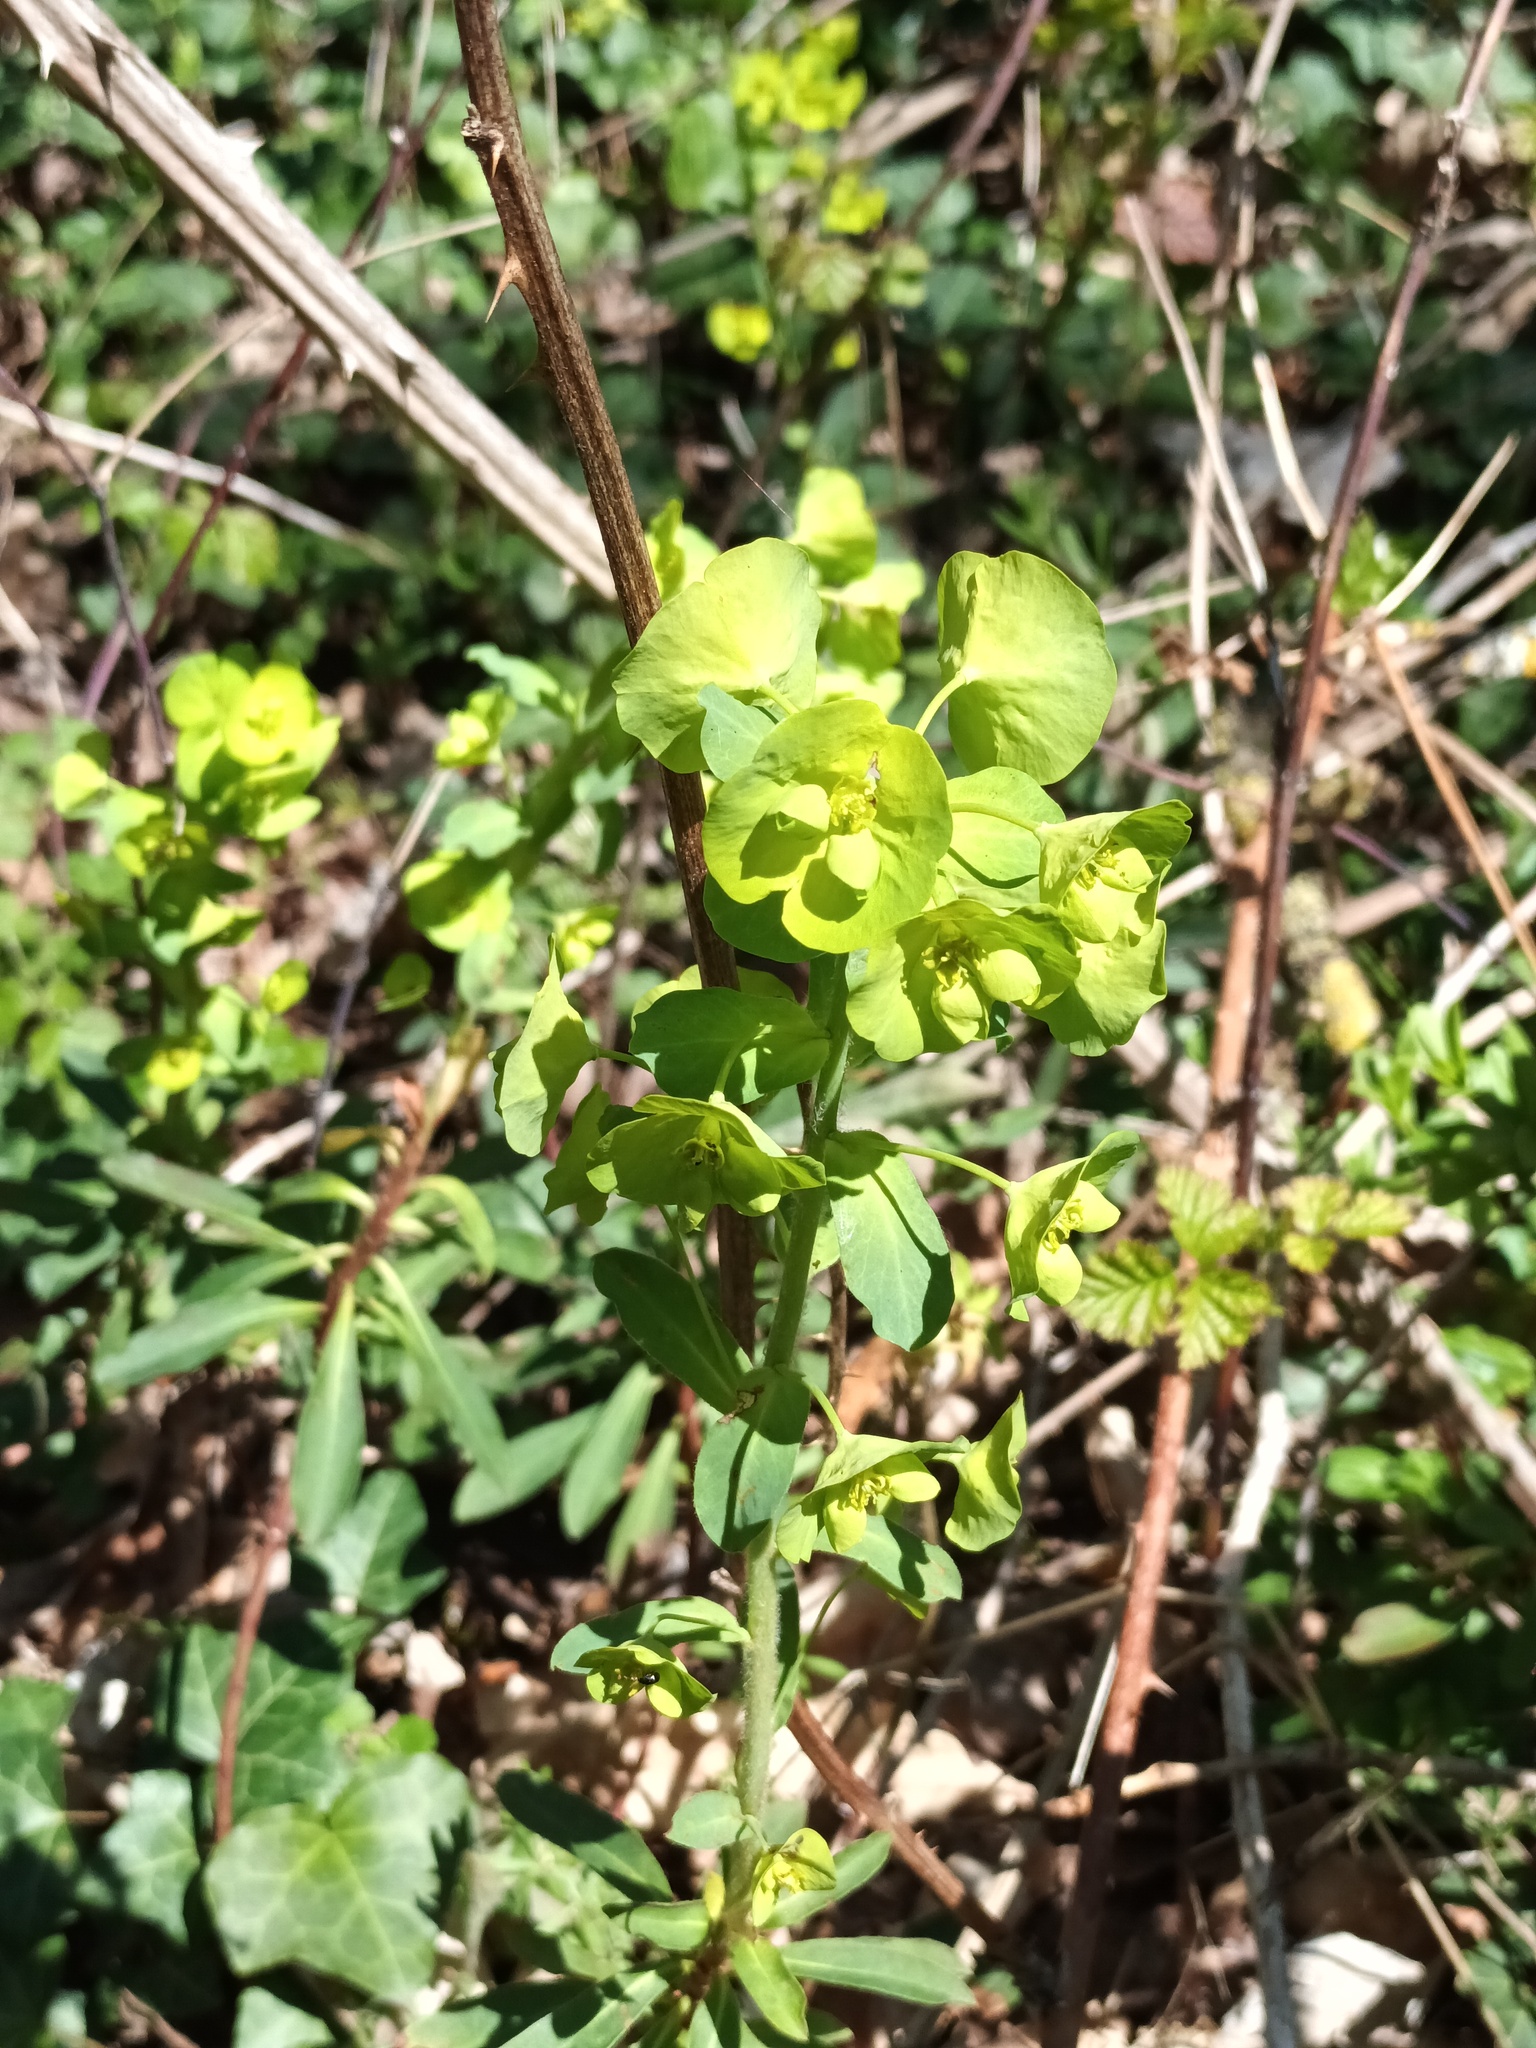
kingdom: Plantae
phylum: Tracheophyta
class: Magnoliopsida
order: Malpighiales
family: Euphorbiaceae
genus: Euphorbia
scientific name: Euphorbia amygdaloides
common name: Wood spurge
